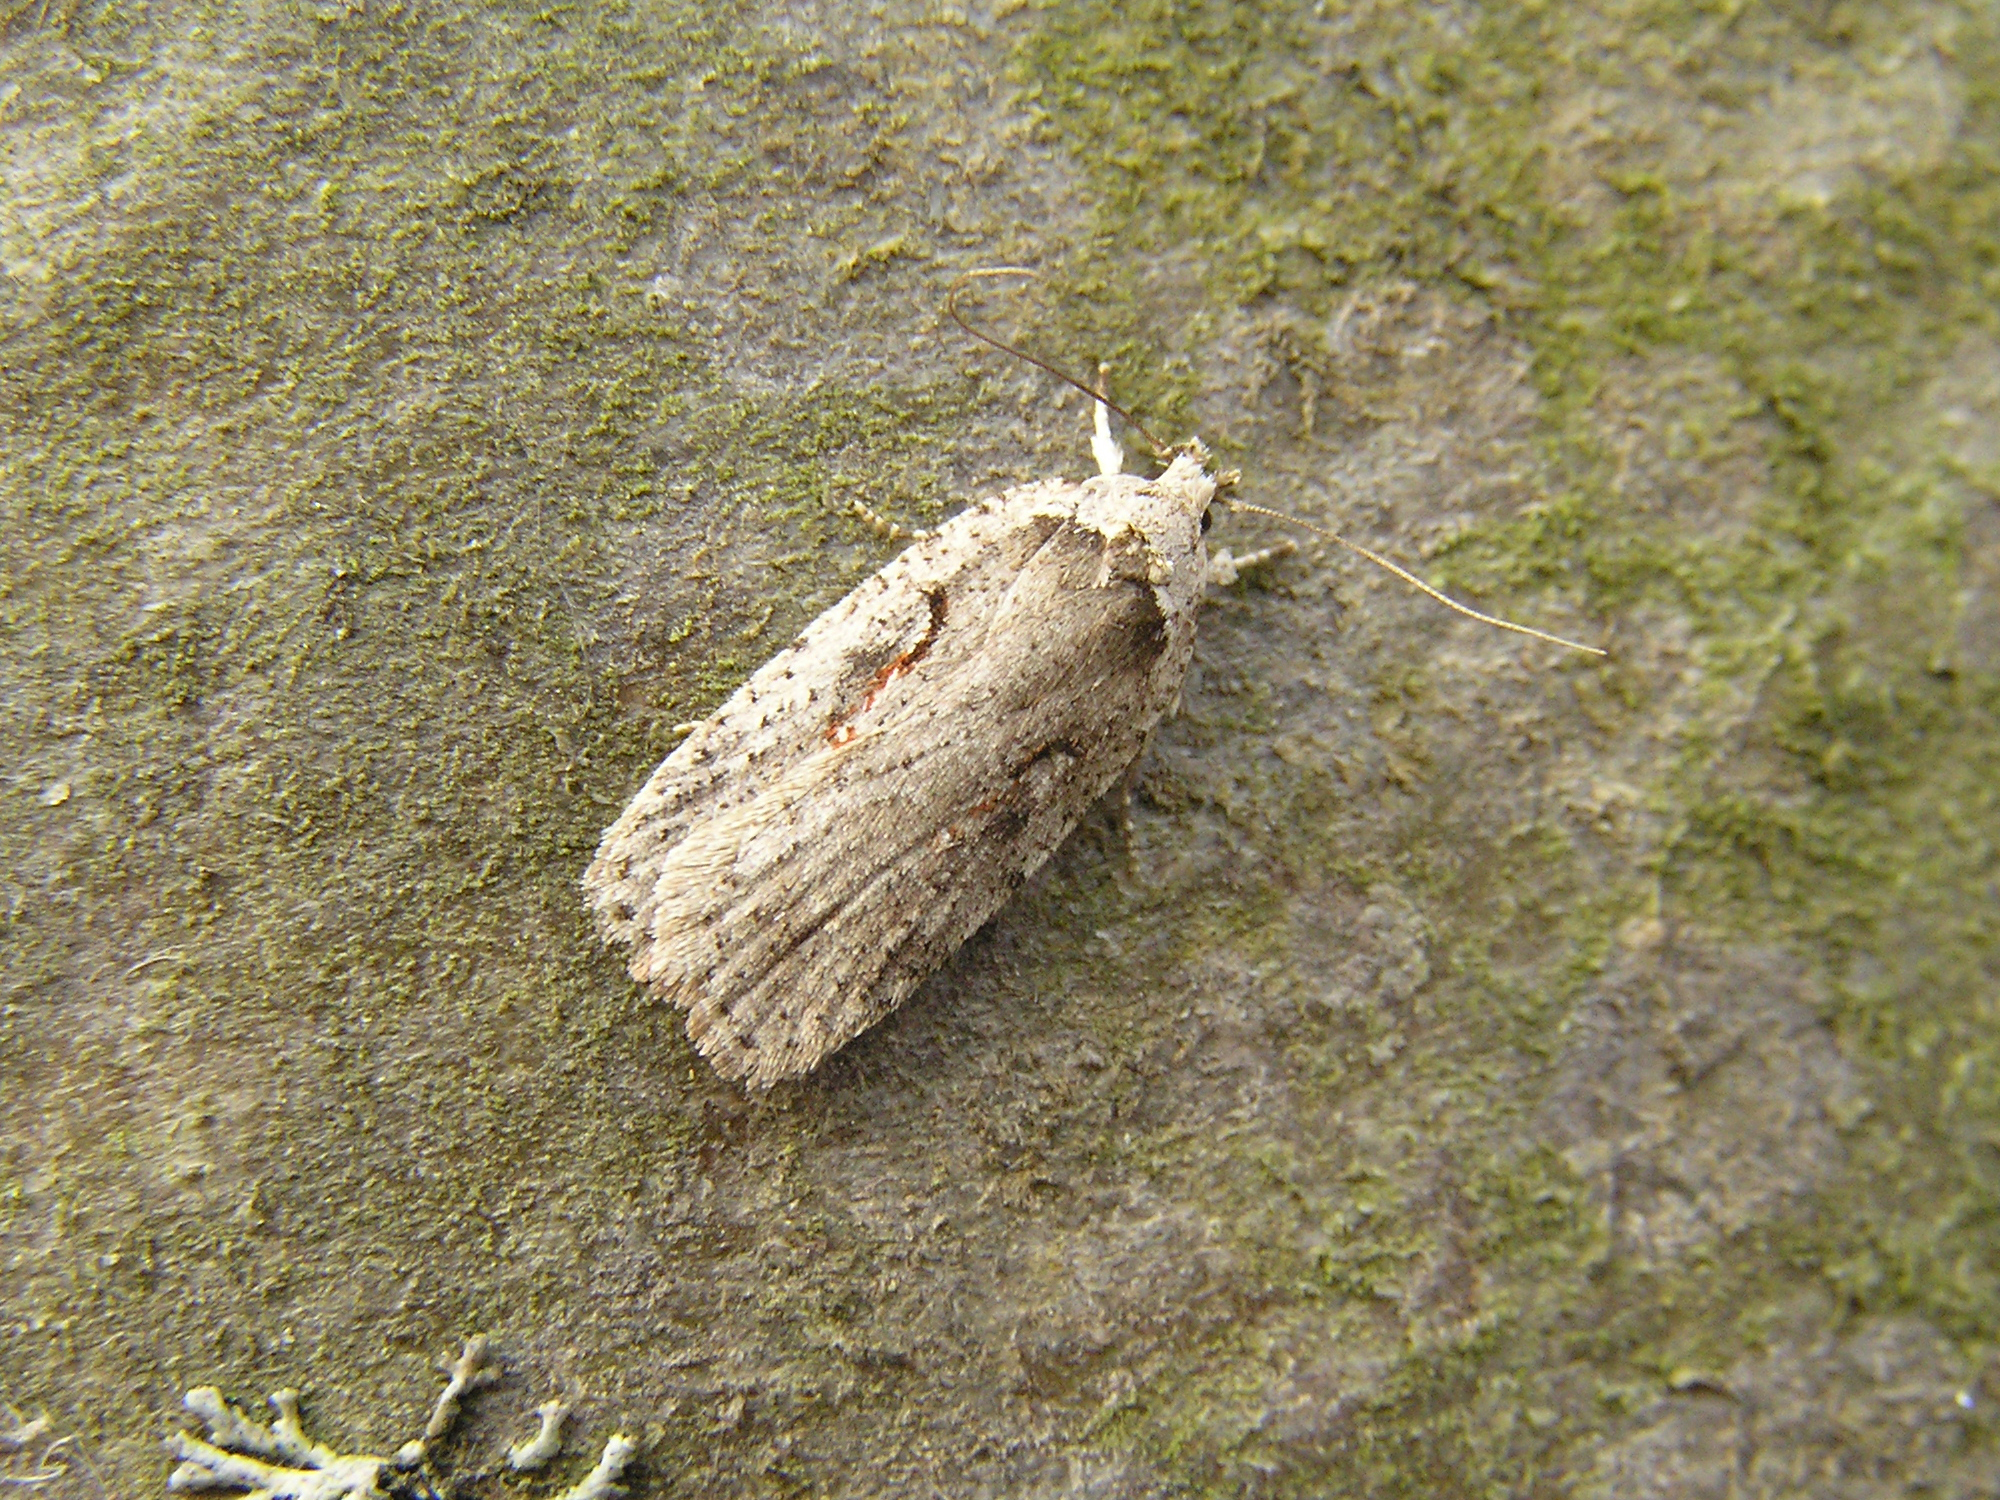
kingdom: Animalia
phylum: Arthropoda
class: Insecta
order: Lepidoptera
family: Depressariidae
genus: Agonopterix
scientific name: Agonopterix ocellana
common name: Red-letter flat-body
